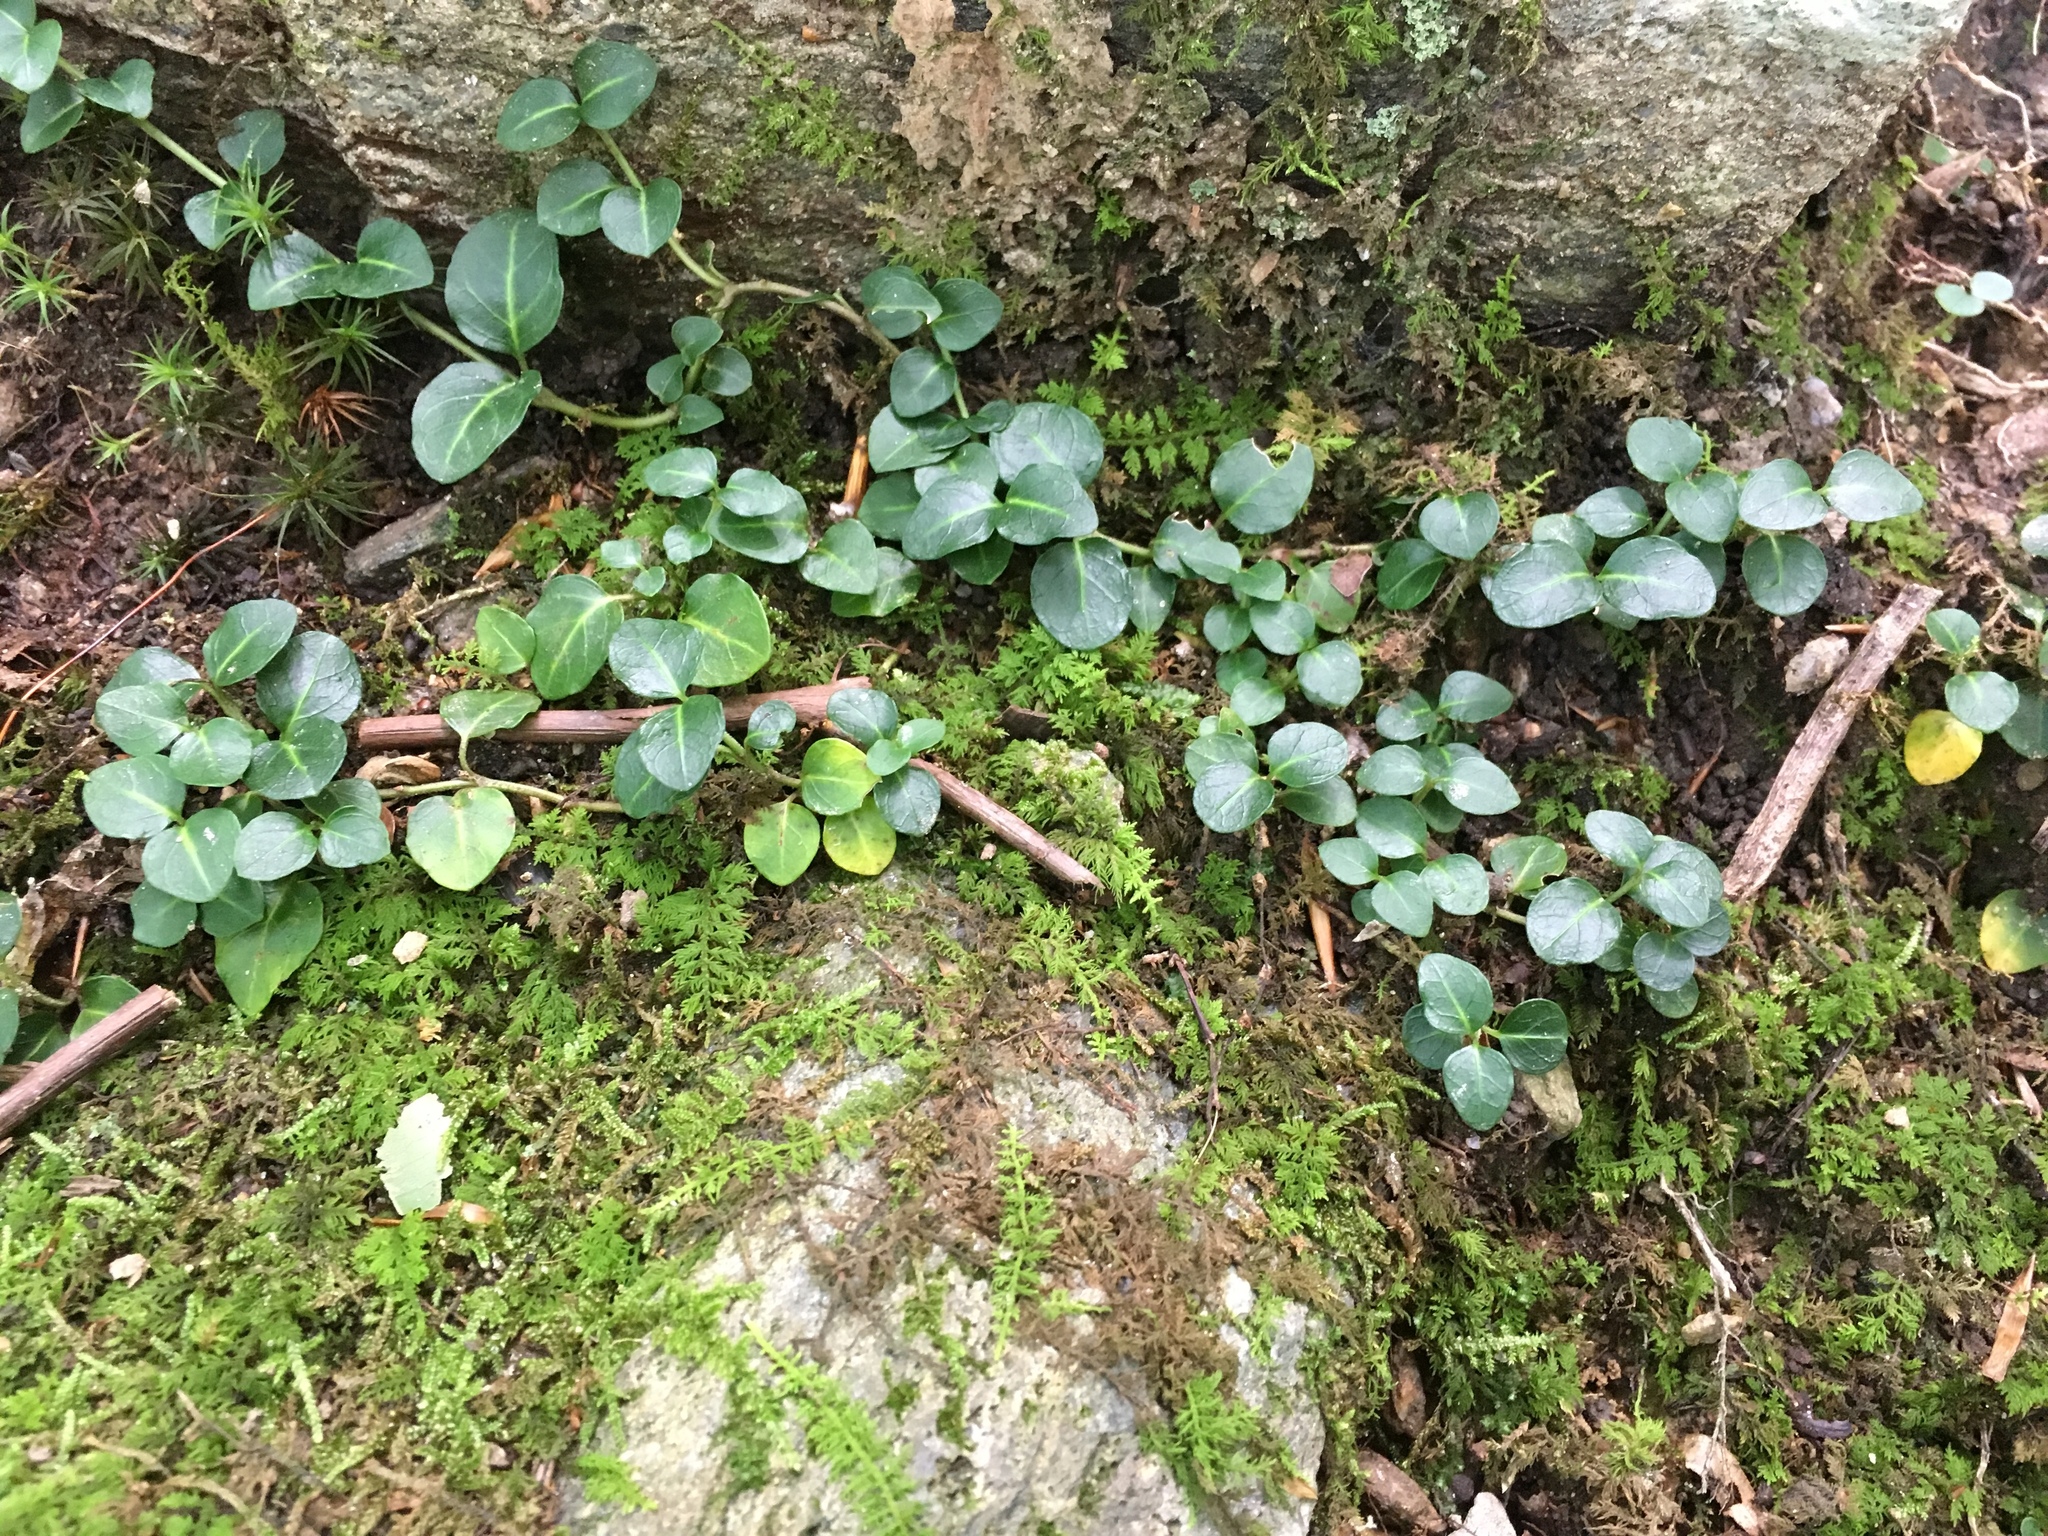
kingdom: Plantae
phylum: Tracheophyta
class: Magnoliopsida
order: Gentianales
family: Rubiaceae
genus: Mitchella
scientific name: Mitchella repens
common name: Partridge-berry
